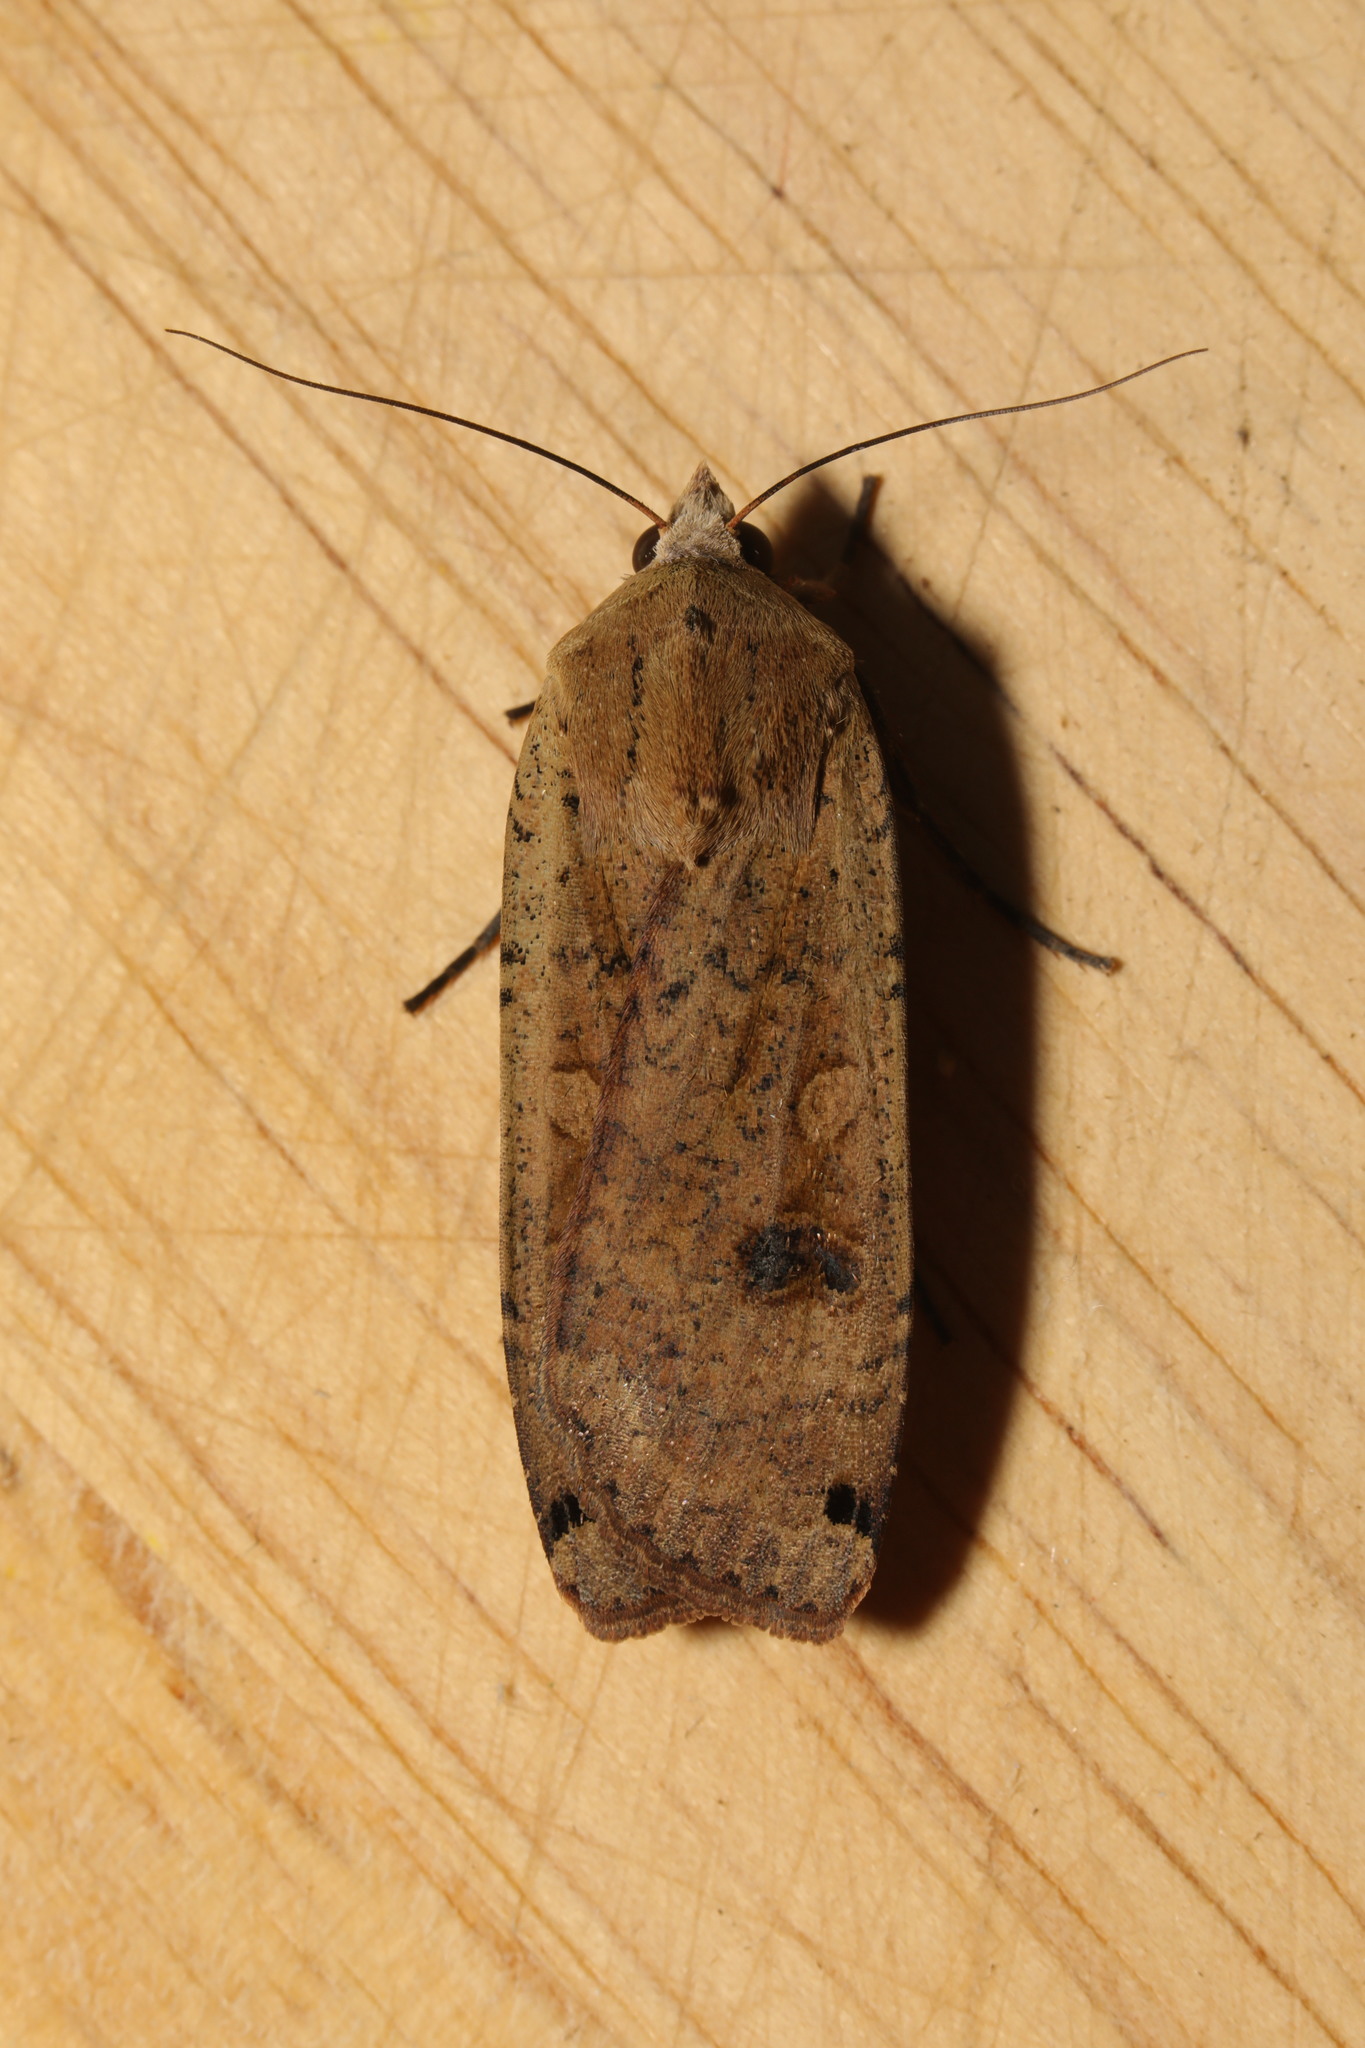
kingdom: Animalia
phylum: Arthropoda
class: Insecta
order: Lepidoptera
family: Noctuidae
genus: Noctua
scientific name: Noctua pronuba
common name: Large yellow underwing
